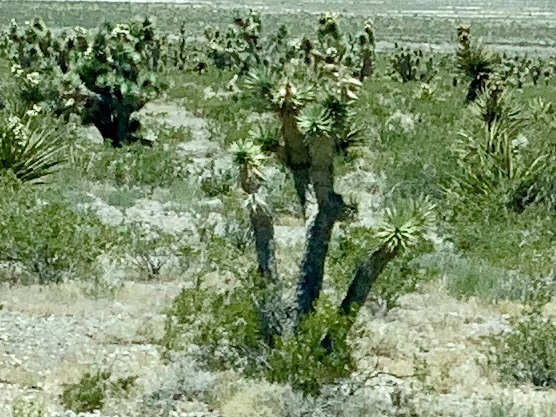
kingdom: Plantae
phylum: Tracheophyta
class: Liliopsida
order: Asparagales
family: Asparagaceae
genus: Yucca
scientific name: Yucca brevifolia
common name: Joshua tree
